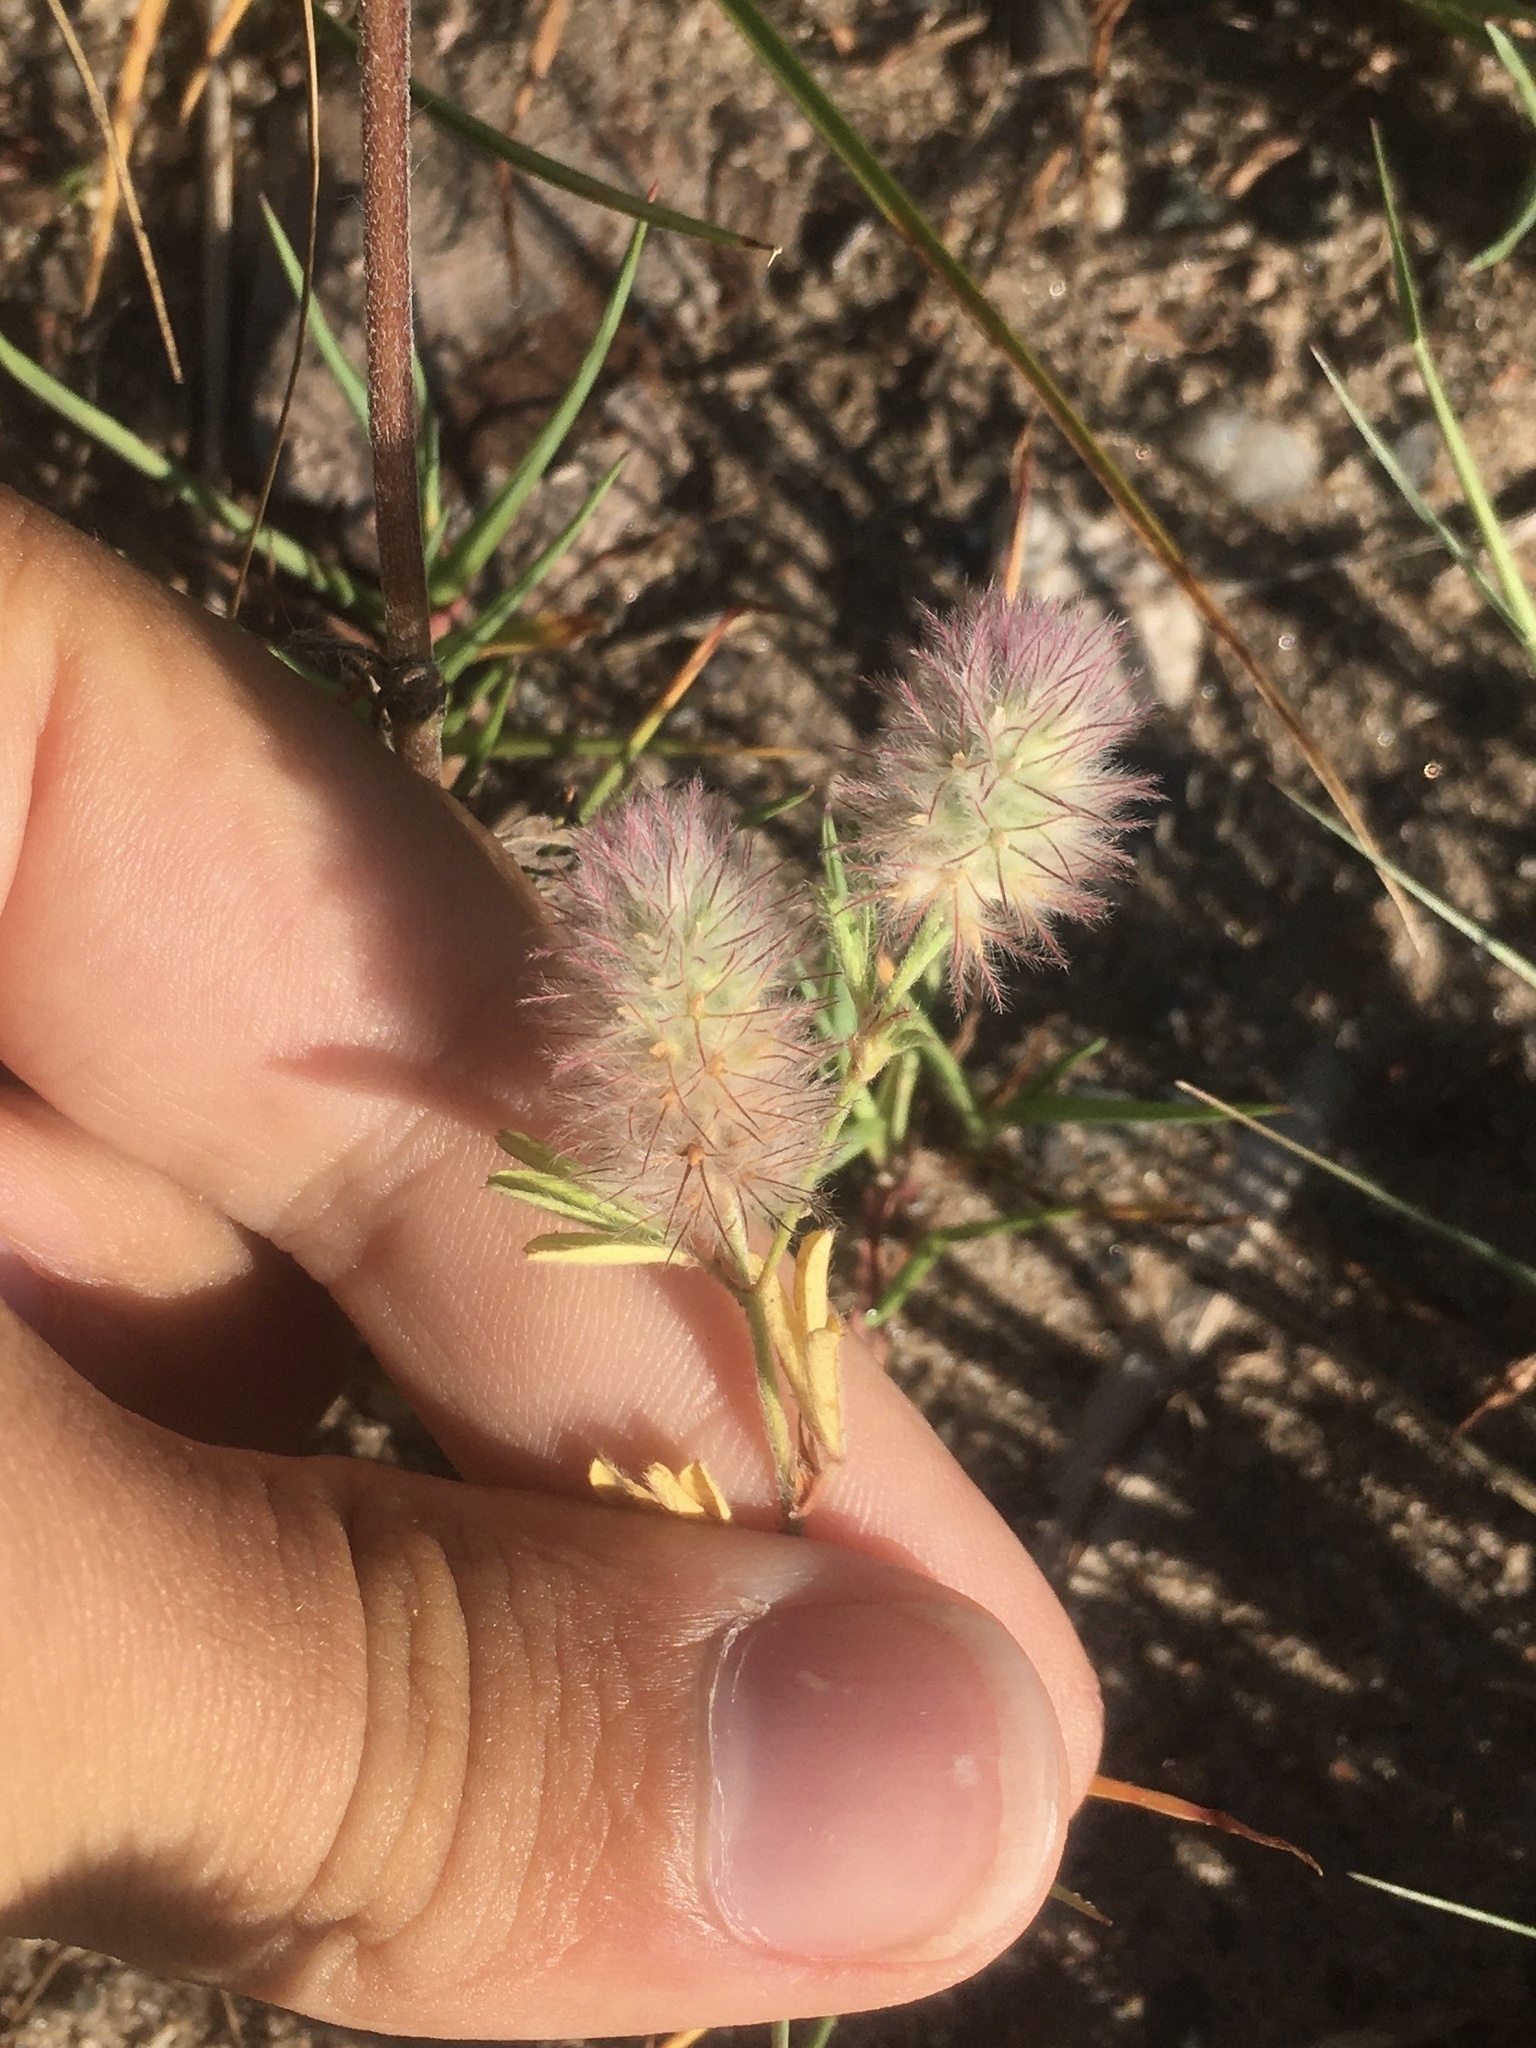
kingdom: Plantae
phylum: Tracheophyta
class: Magnoliopsida
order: Fabales
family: Fabaceae
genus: Trifolium
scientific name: Trifolium arvense
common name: Hare's-foot clover
